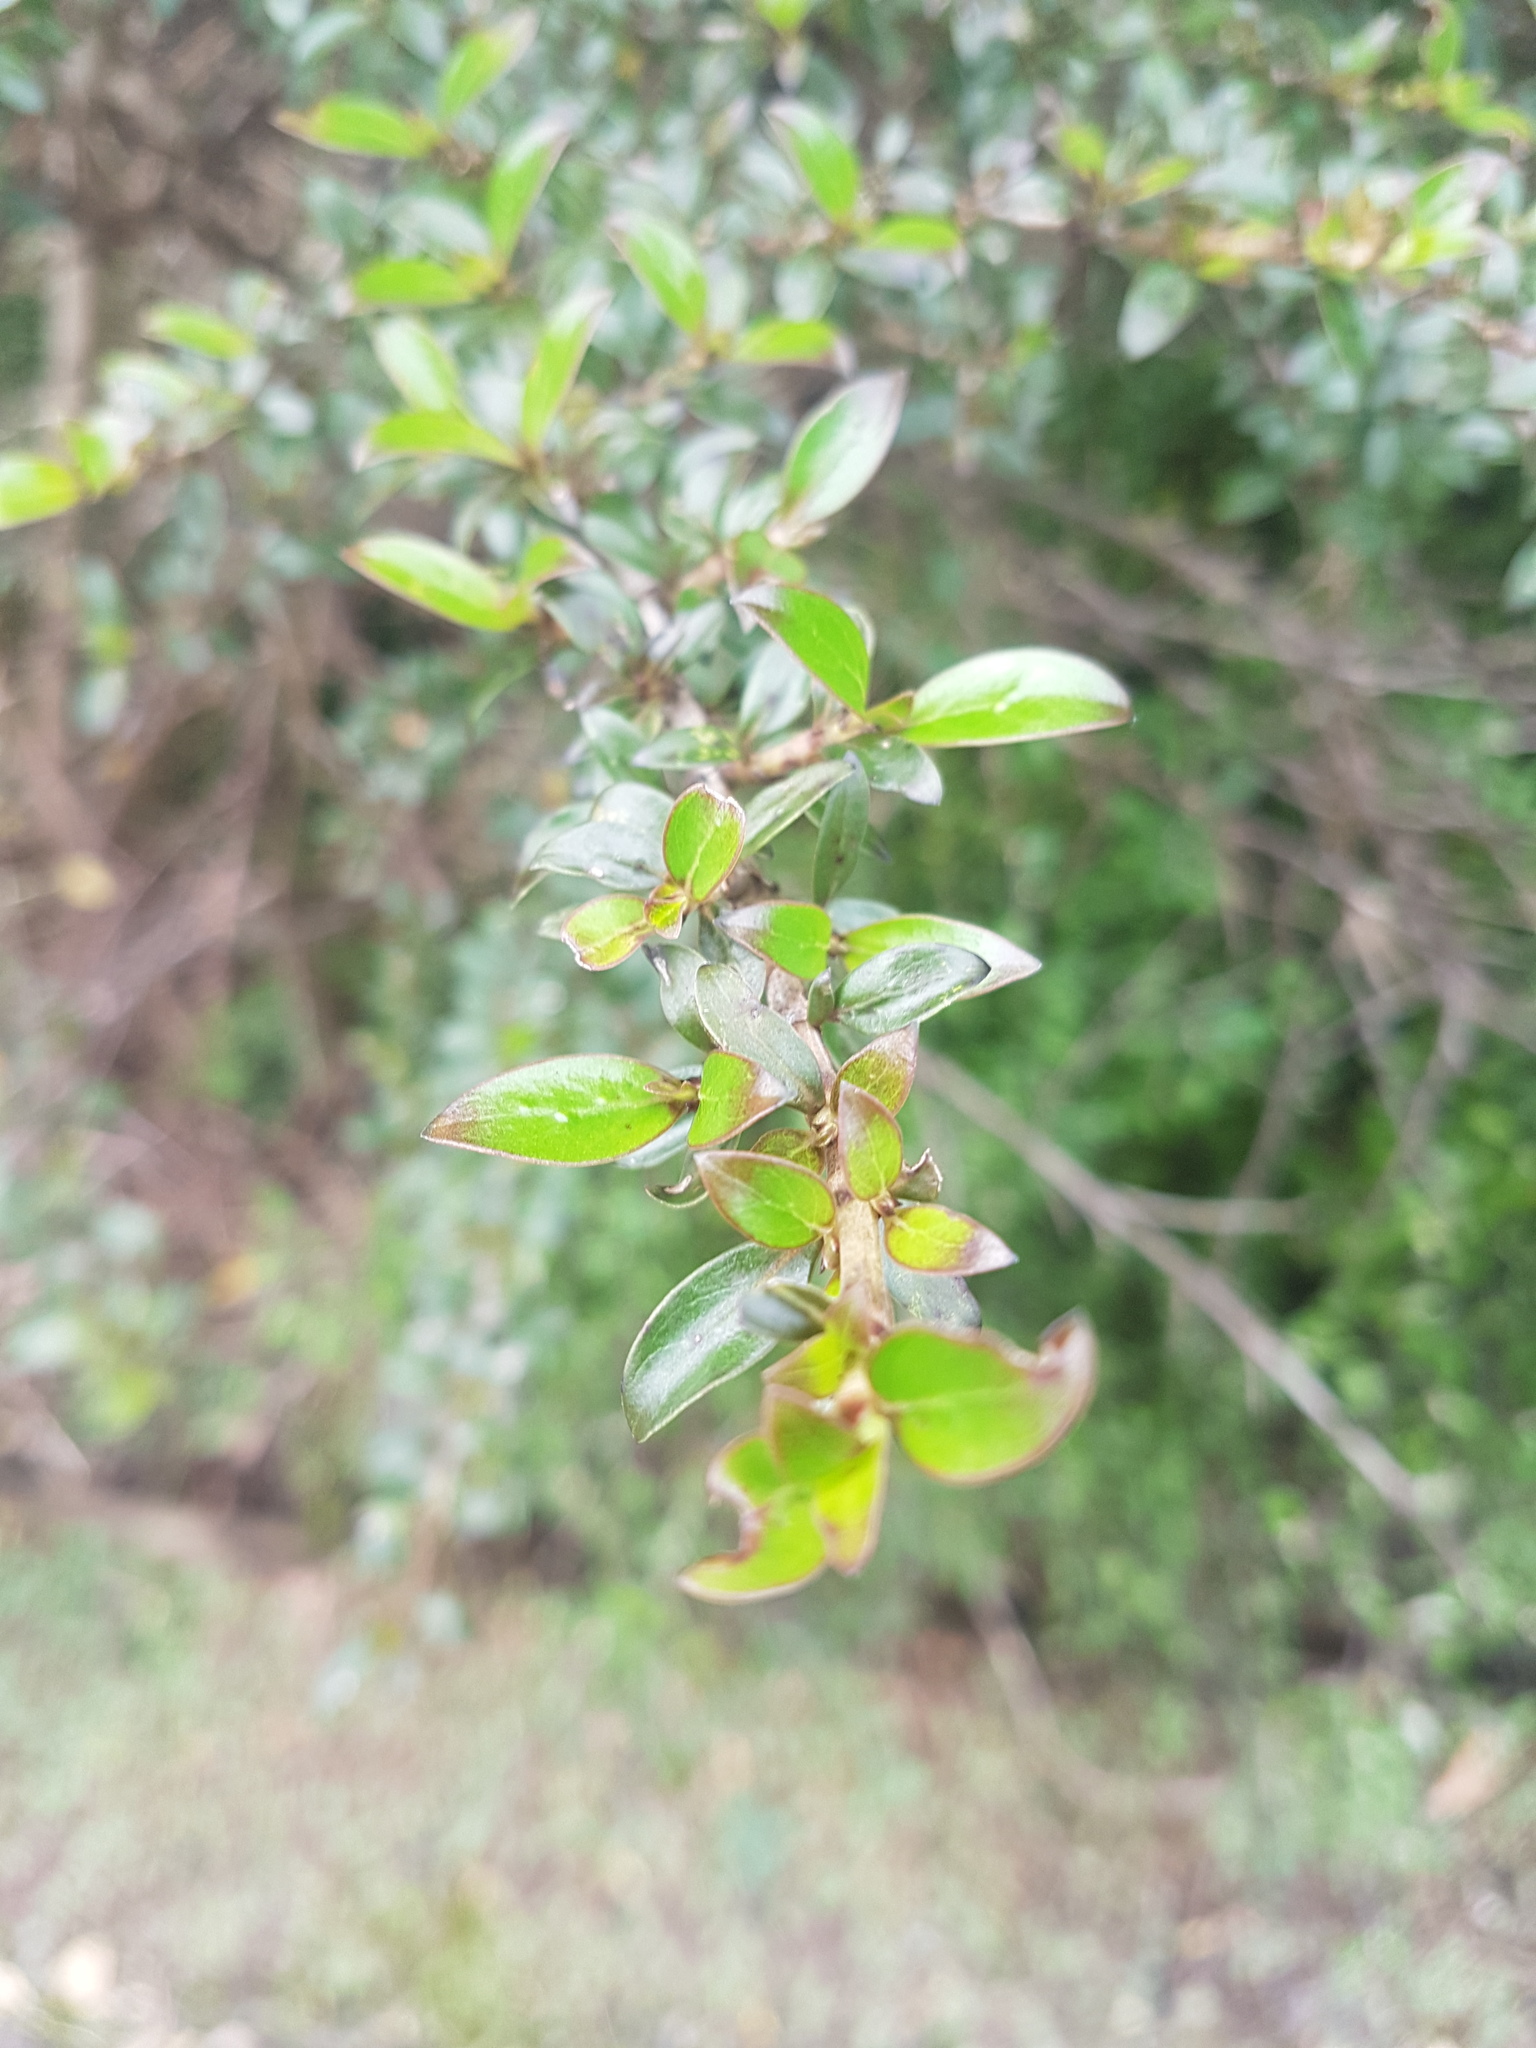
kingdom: Plantae
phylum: Tracheophyta
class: Magnoliopsida
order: Gentianales
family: Rubiaceae
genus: Coprosma
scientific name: Coprosma cunninghamii
